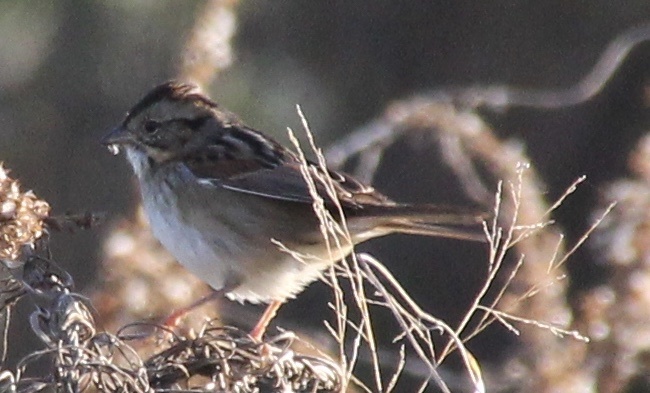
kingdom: Animalia
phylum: Chordata
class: Aves
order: Passeriformes
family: Passerellidae
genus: Melospiza
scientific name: Melospiza georgiana
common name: Swamp sparrow
